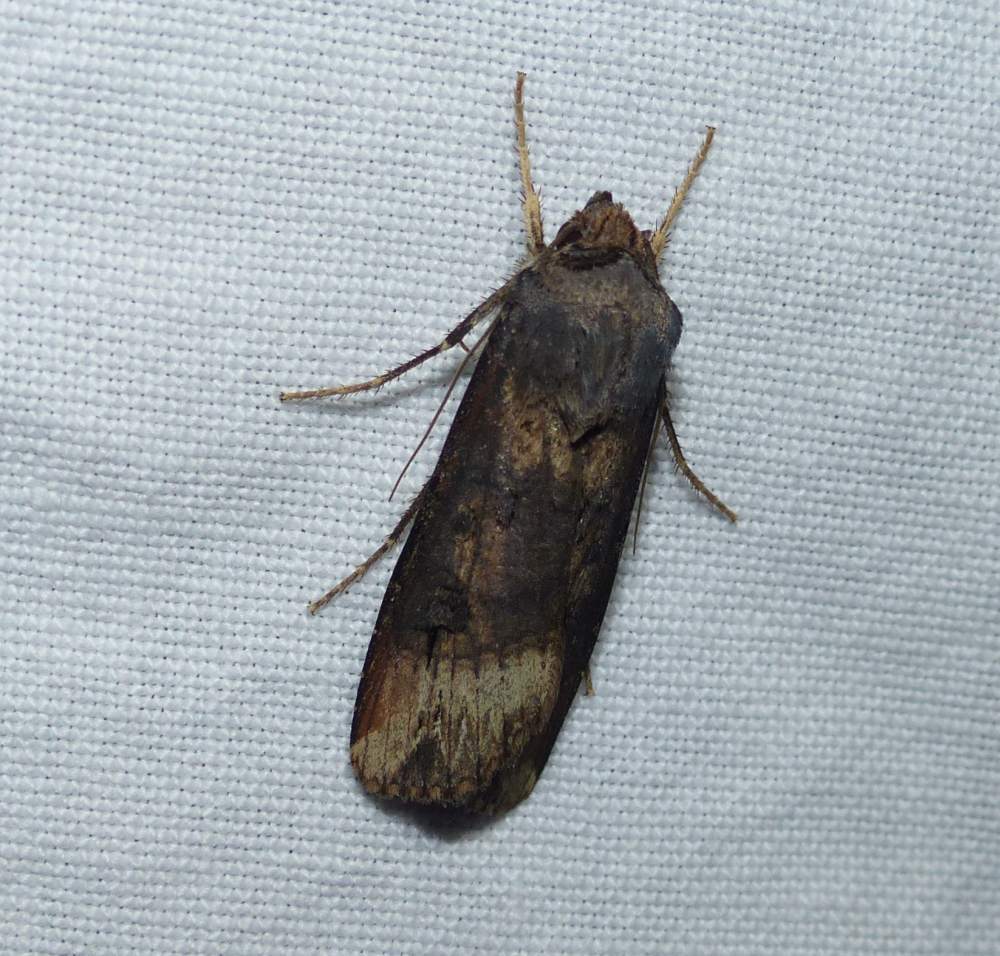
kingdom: Animalia
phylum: Arthropoda
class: Insecta
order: Lepidoptera
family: Noctuidae
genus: Agrotis
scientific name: Agrotis ipsilon
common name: Dark sword-grass
